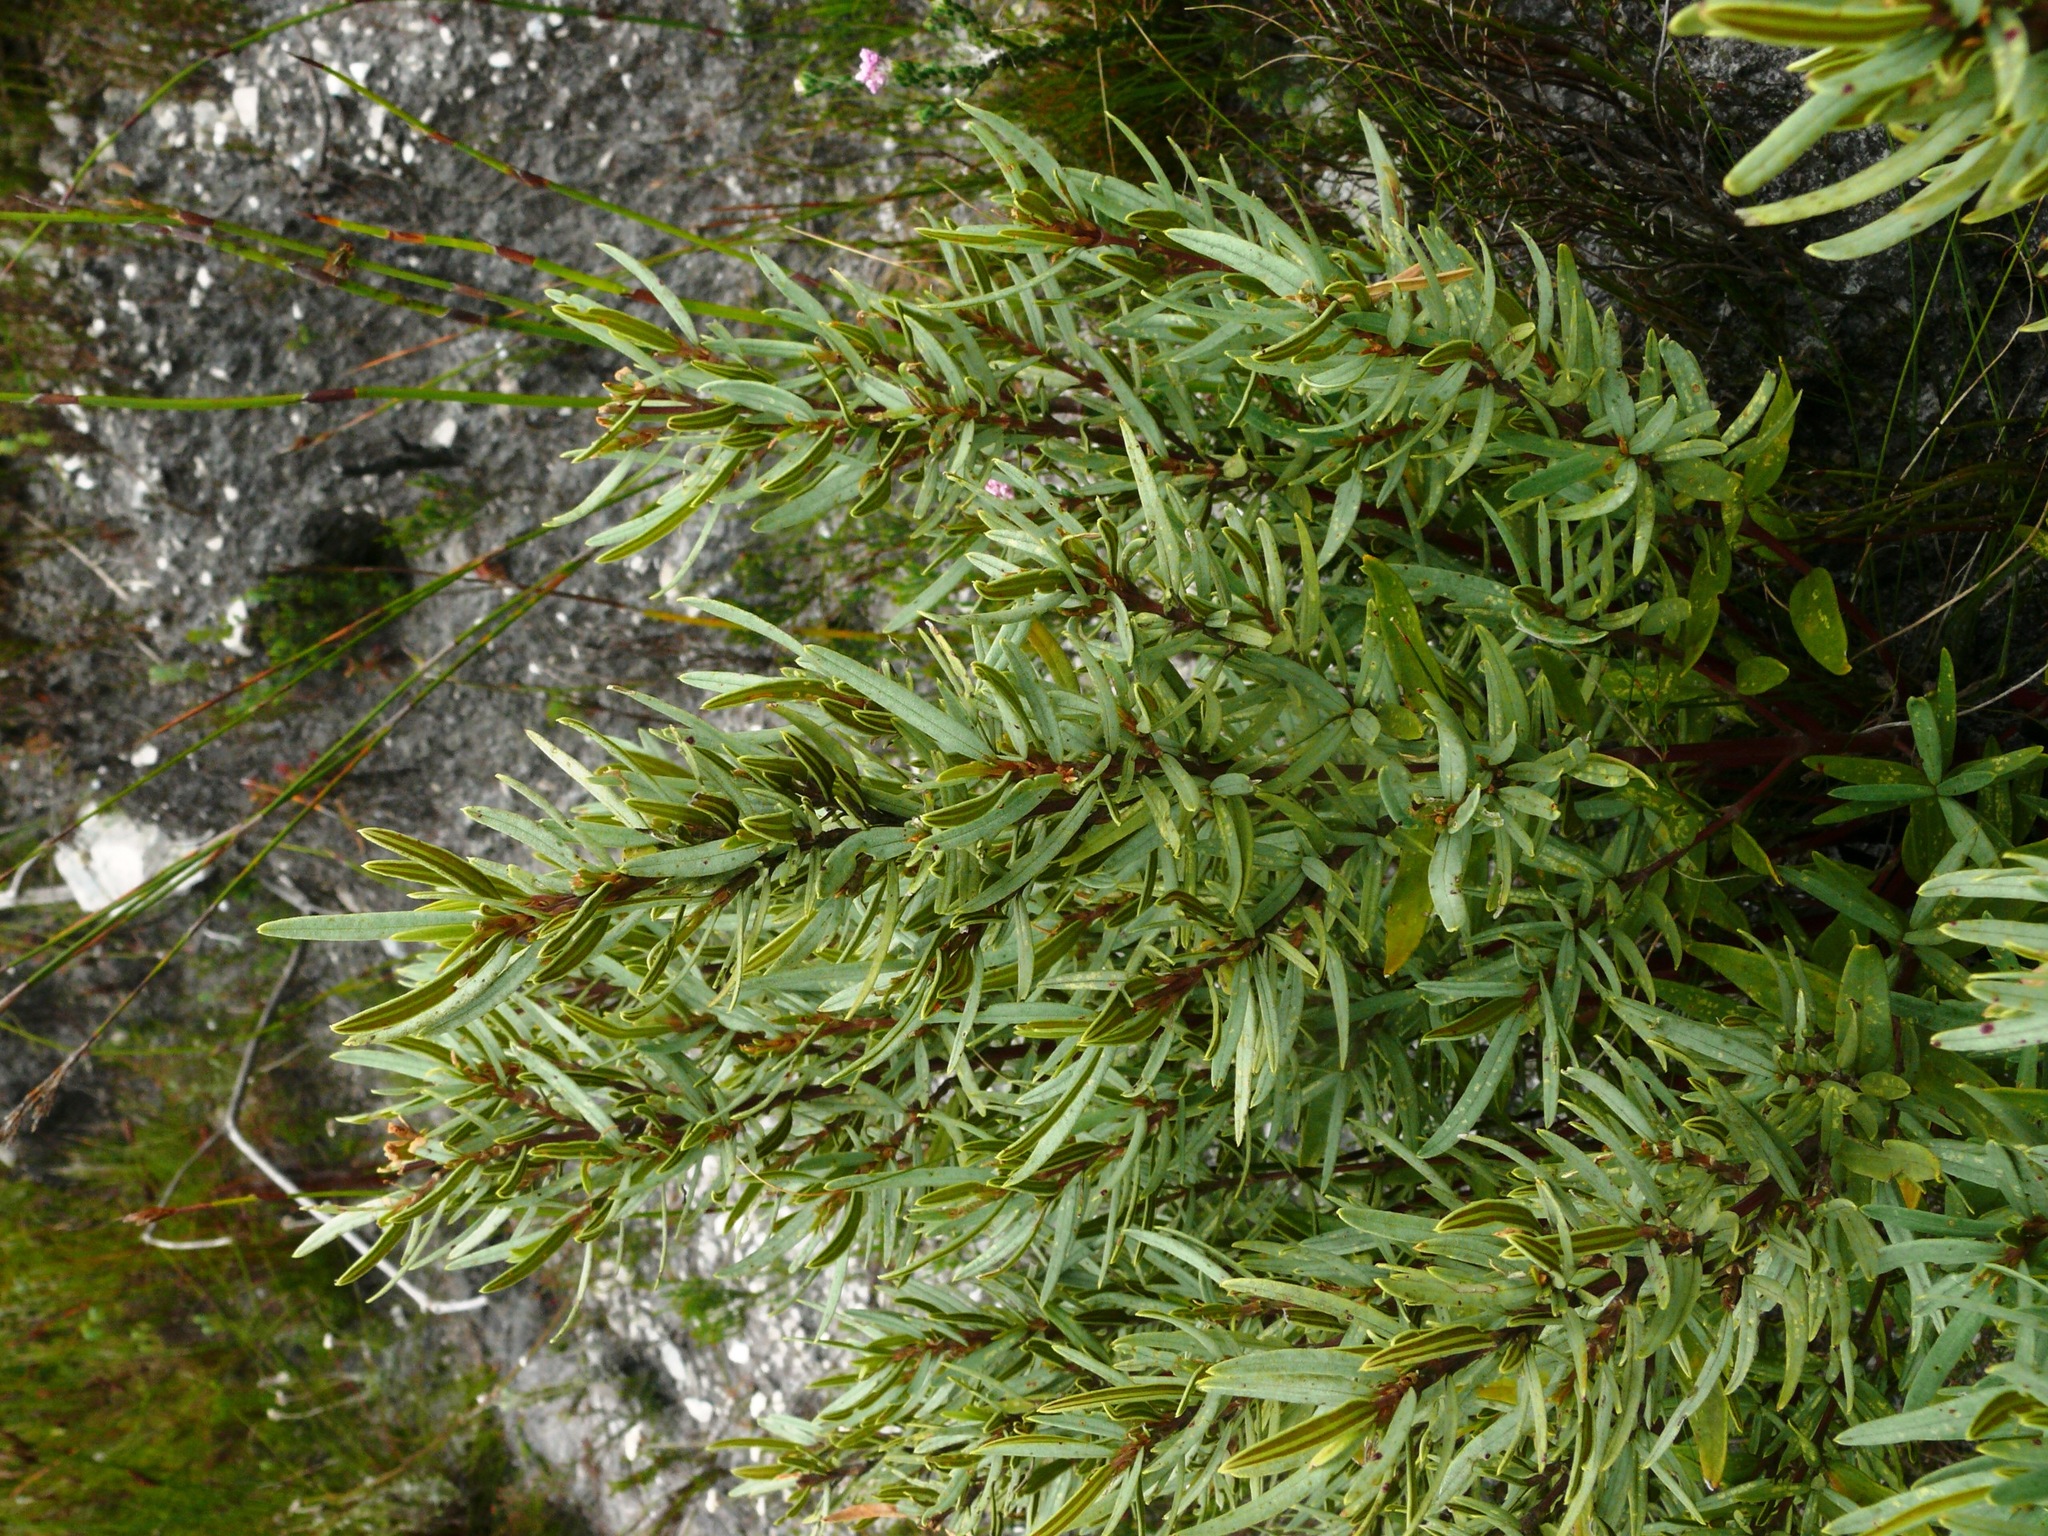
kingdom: Plantae
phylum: Tracheophyta
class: Magnoliopsida
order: Cornales
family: Grubbiaceae
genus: Grubbia
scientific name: Grubbia tomentosa
